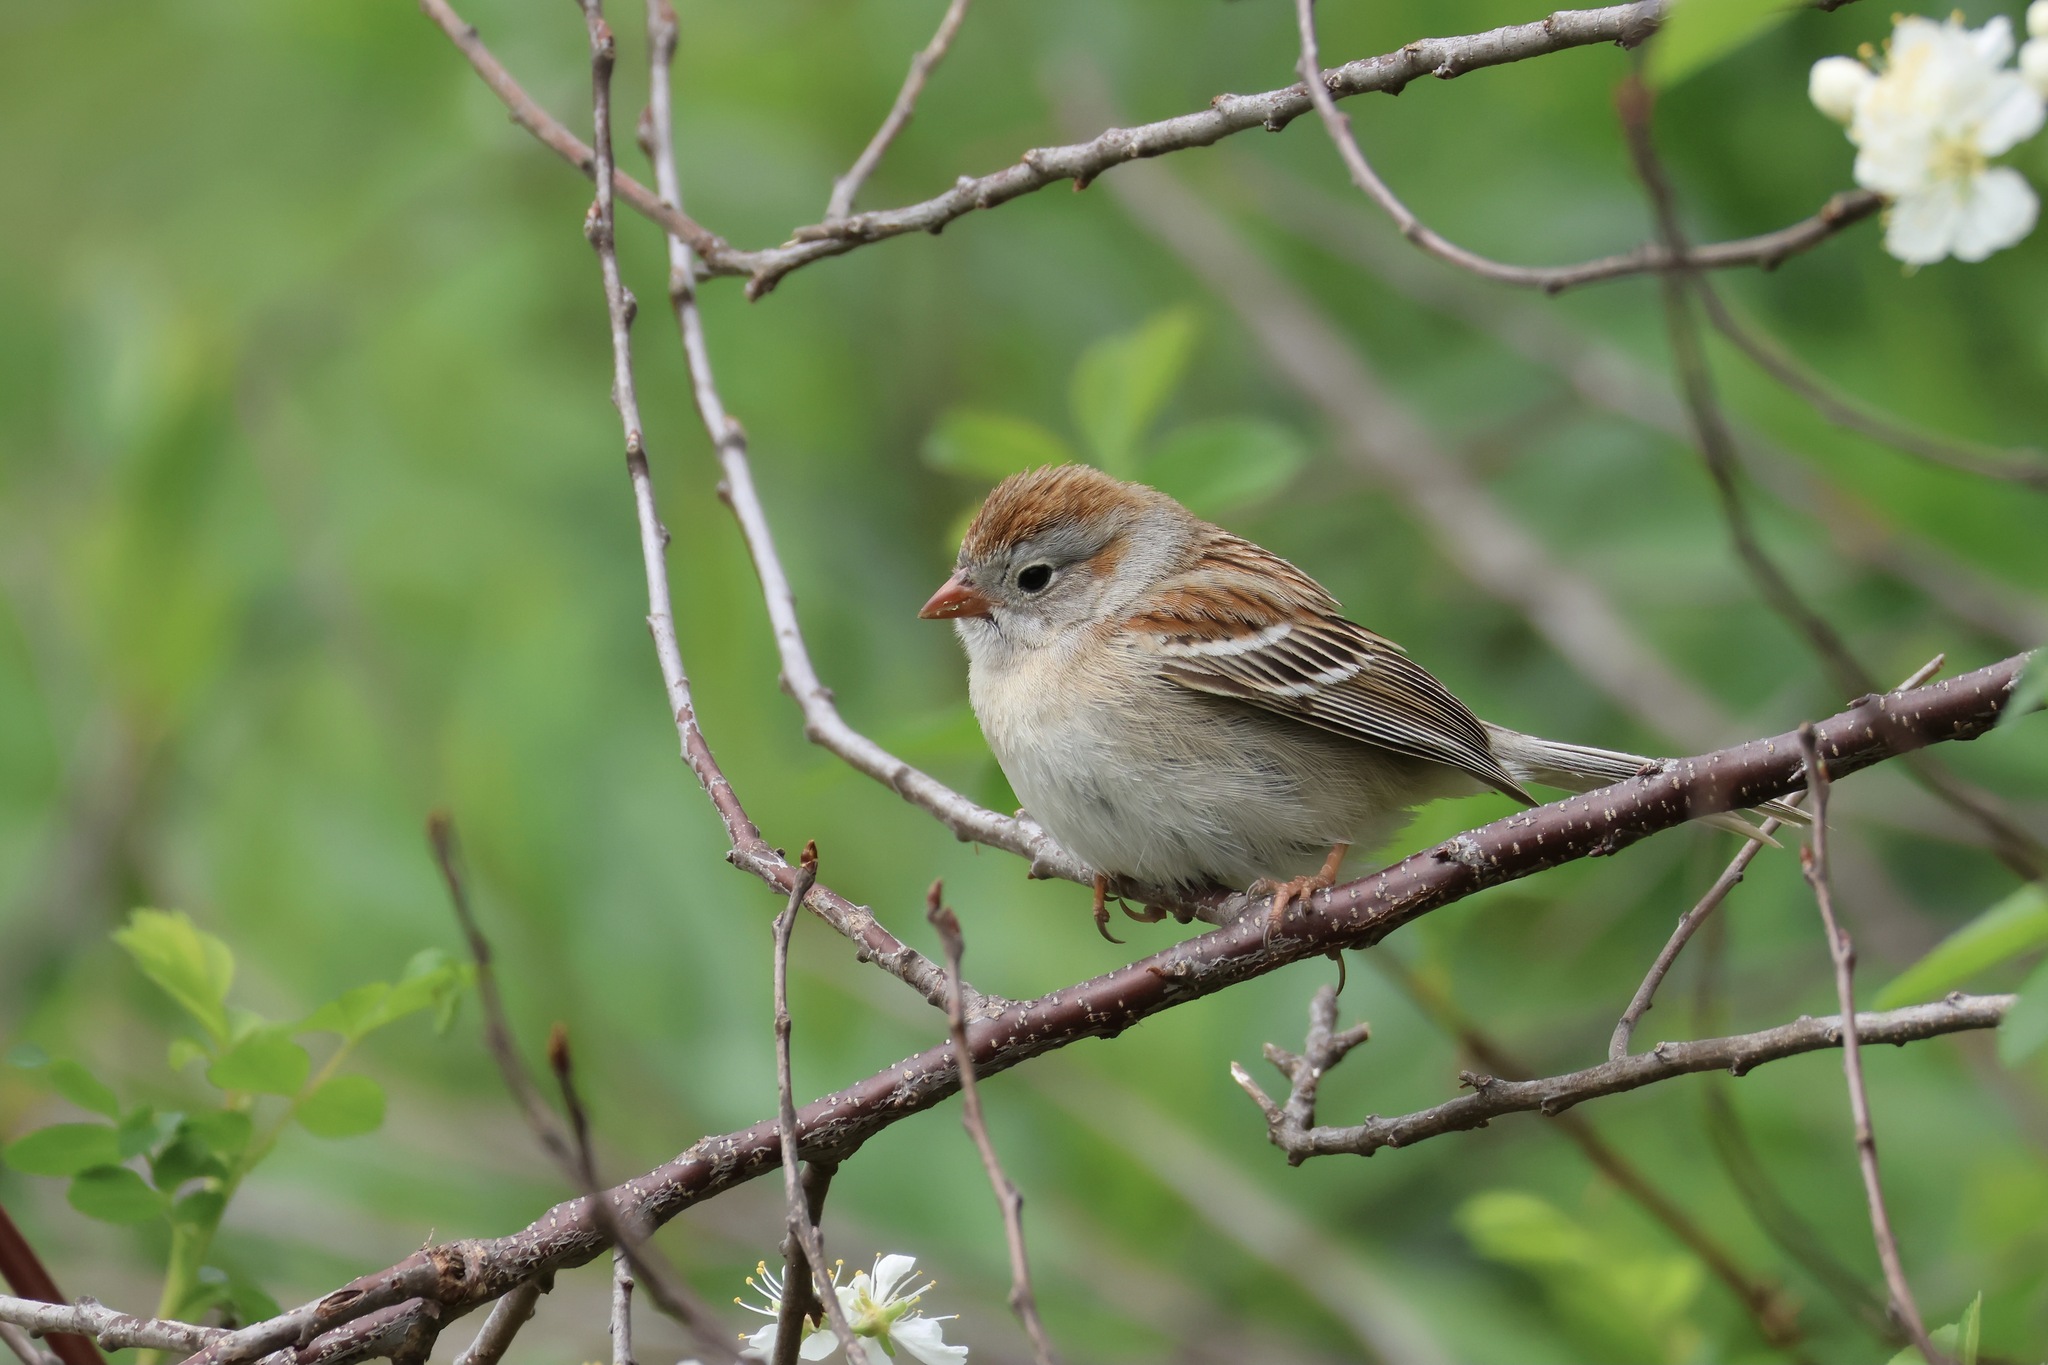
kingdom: Animalia
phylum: Chordata
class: Aves
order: Passeriformes
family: Passerellidae
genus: Spizella
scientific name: Spizella pusilla
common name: Field sparrow
